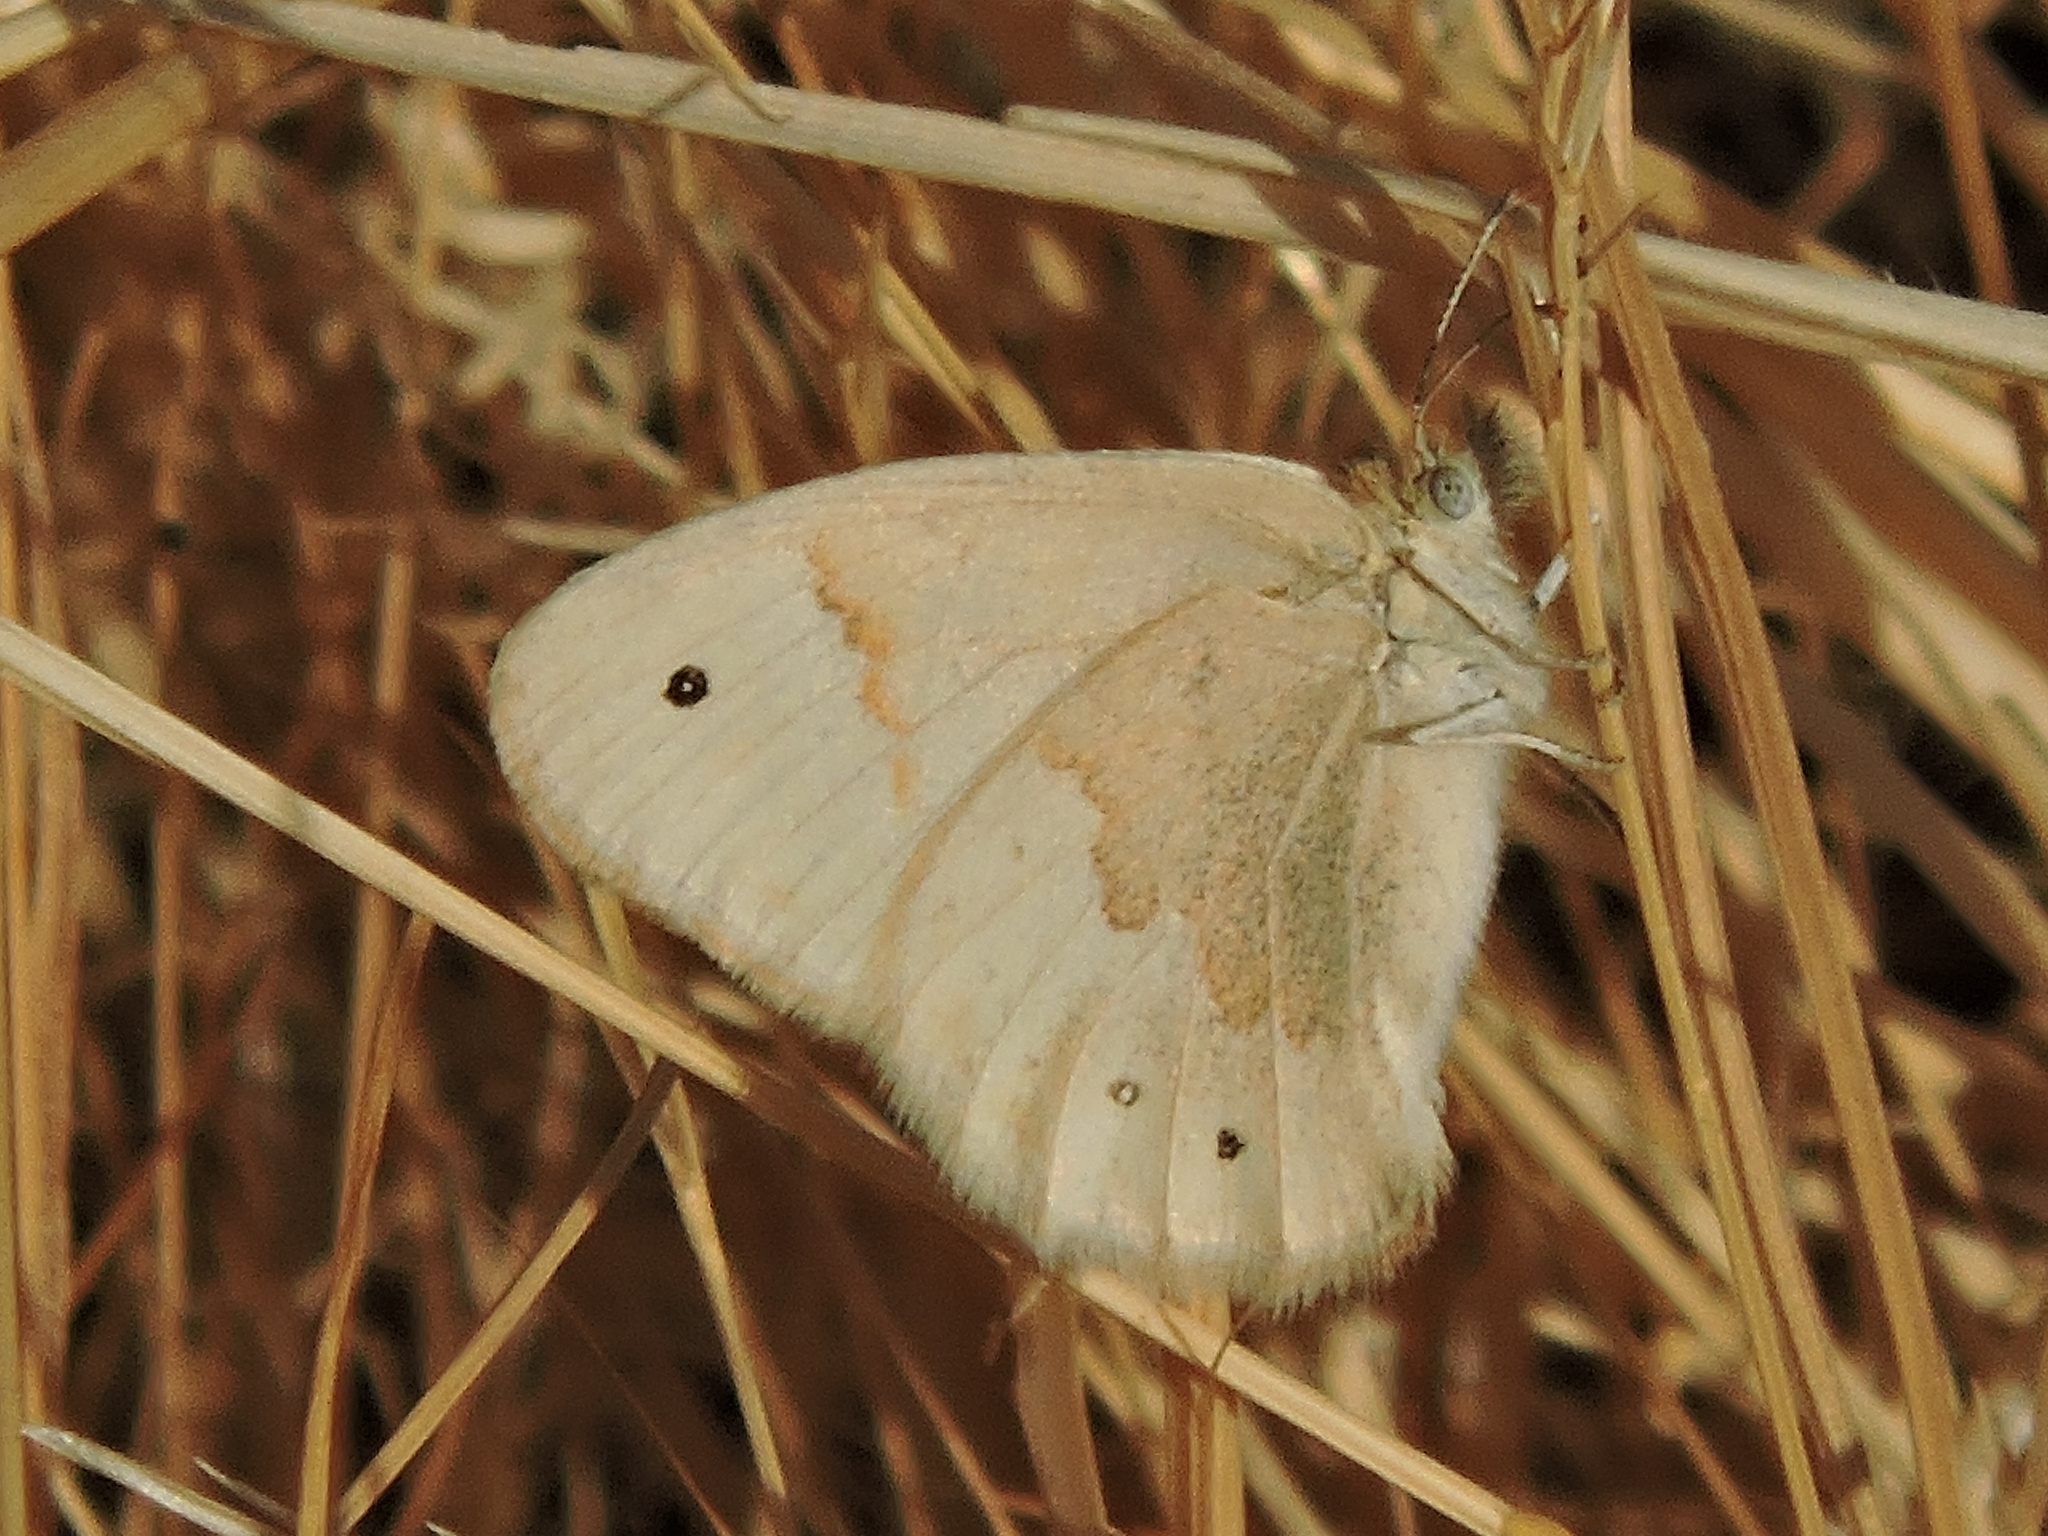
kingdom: Animalia
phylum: Arthropoda
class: Insecta
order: Lepidoptera
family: Nymphalidae
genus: Coenonympha
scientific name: Coenonympha california
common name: Common ringlet
